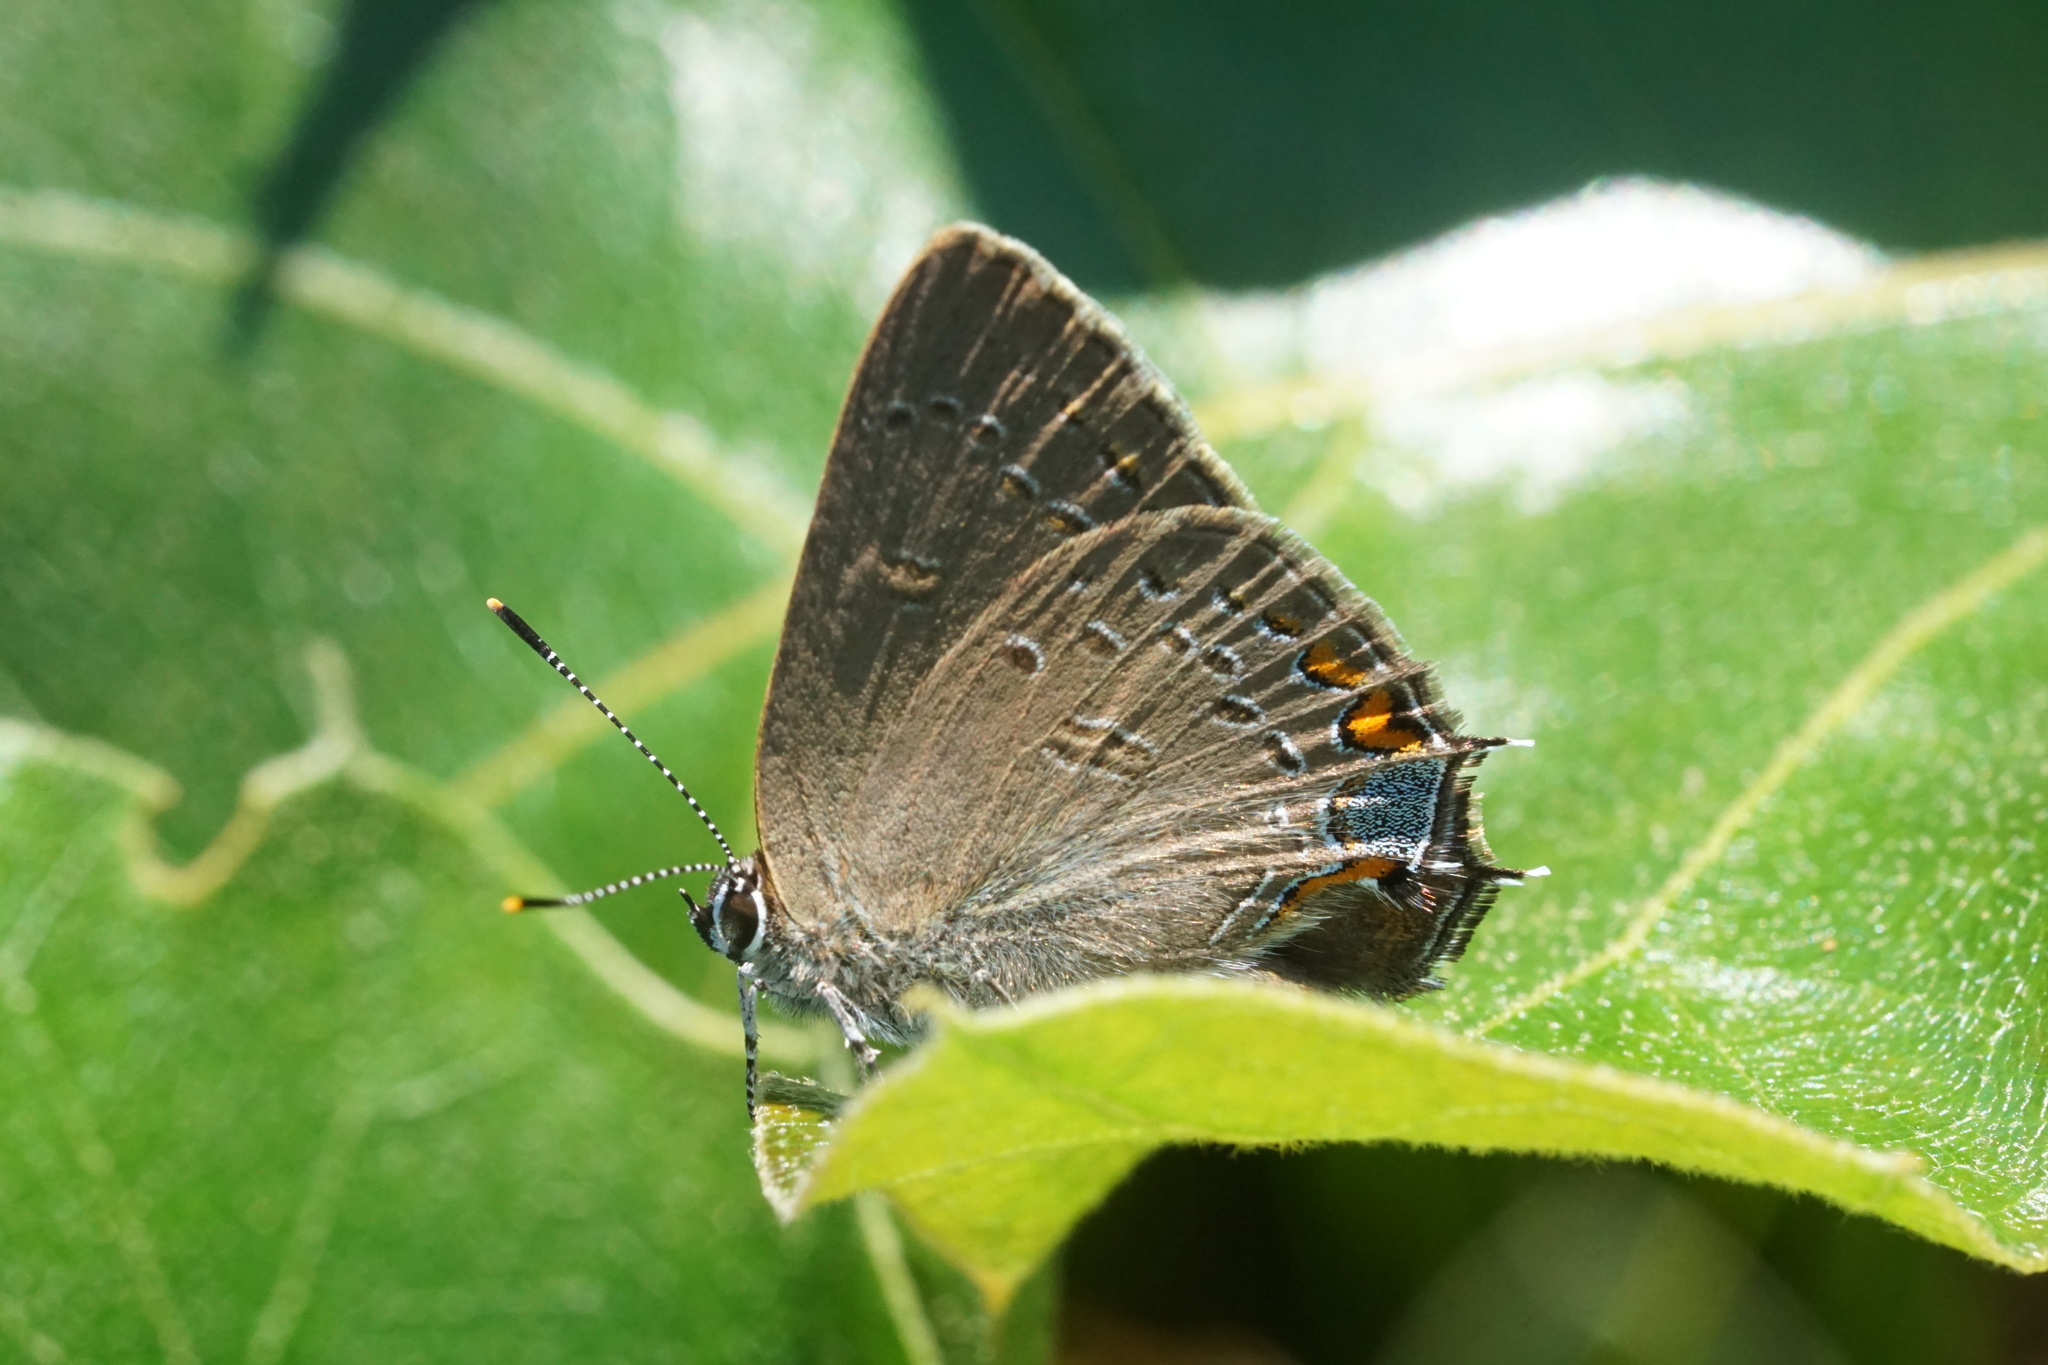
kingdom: Animalia
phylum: Arthropoda
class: Insecta
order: Lepidoptera
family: Lycaenidae
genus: Satyrium
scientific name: Satyrium edwardsii
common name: Edwards' hairstreak
